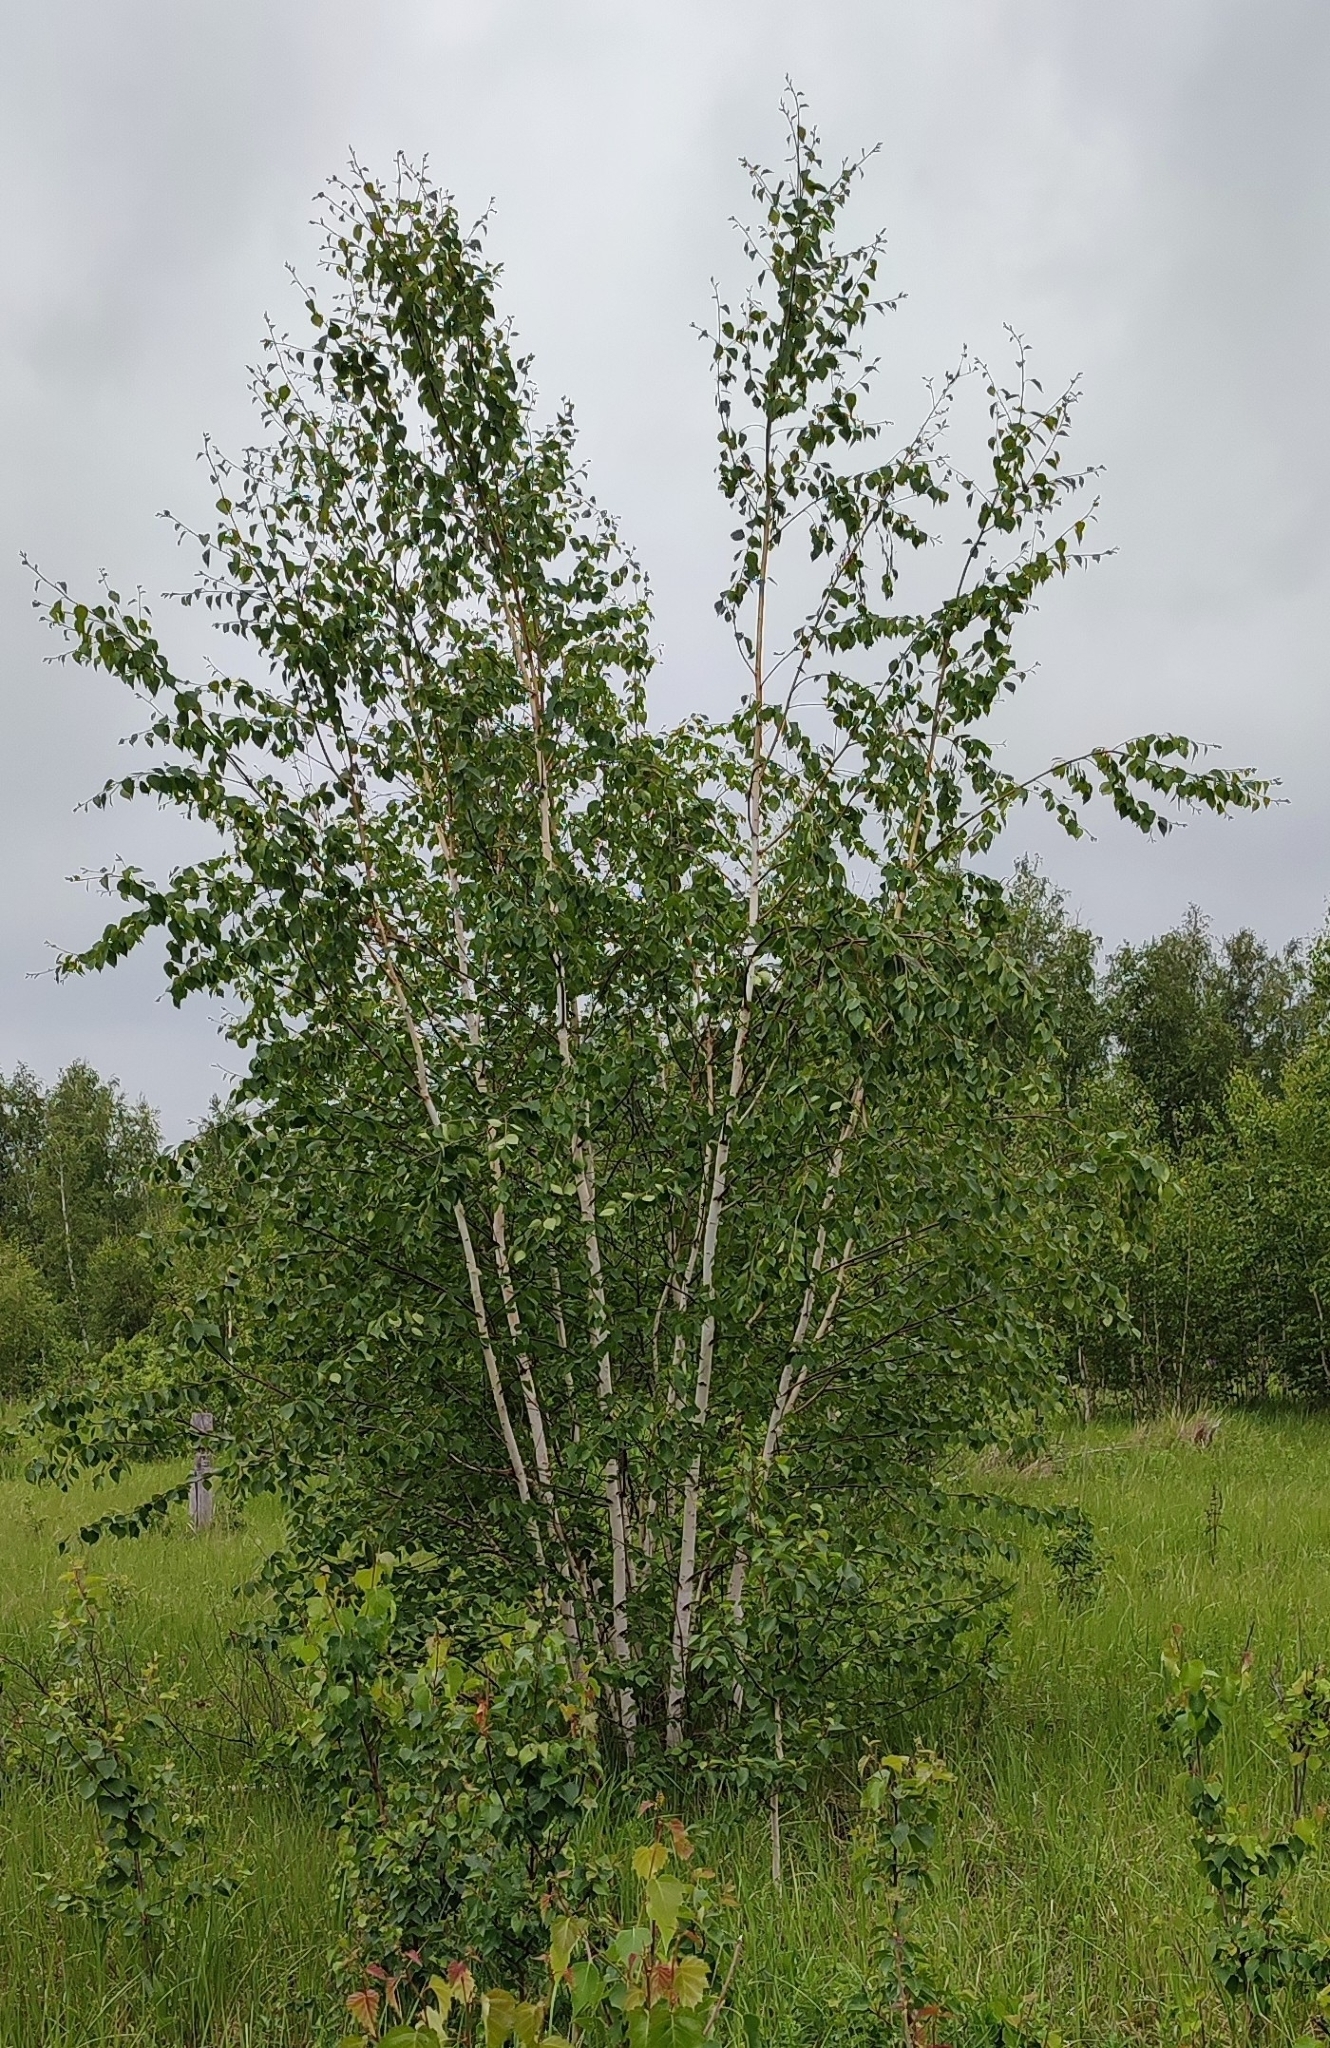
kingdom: Plantae
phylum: Tracheophyta
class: Magnoliopsida
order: Fagales
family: Betulaceae
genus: Betula
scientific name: Betula pendula
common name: Silver birch
